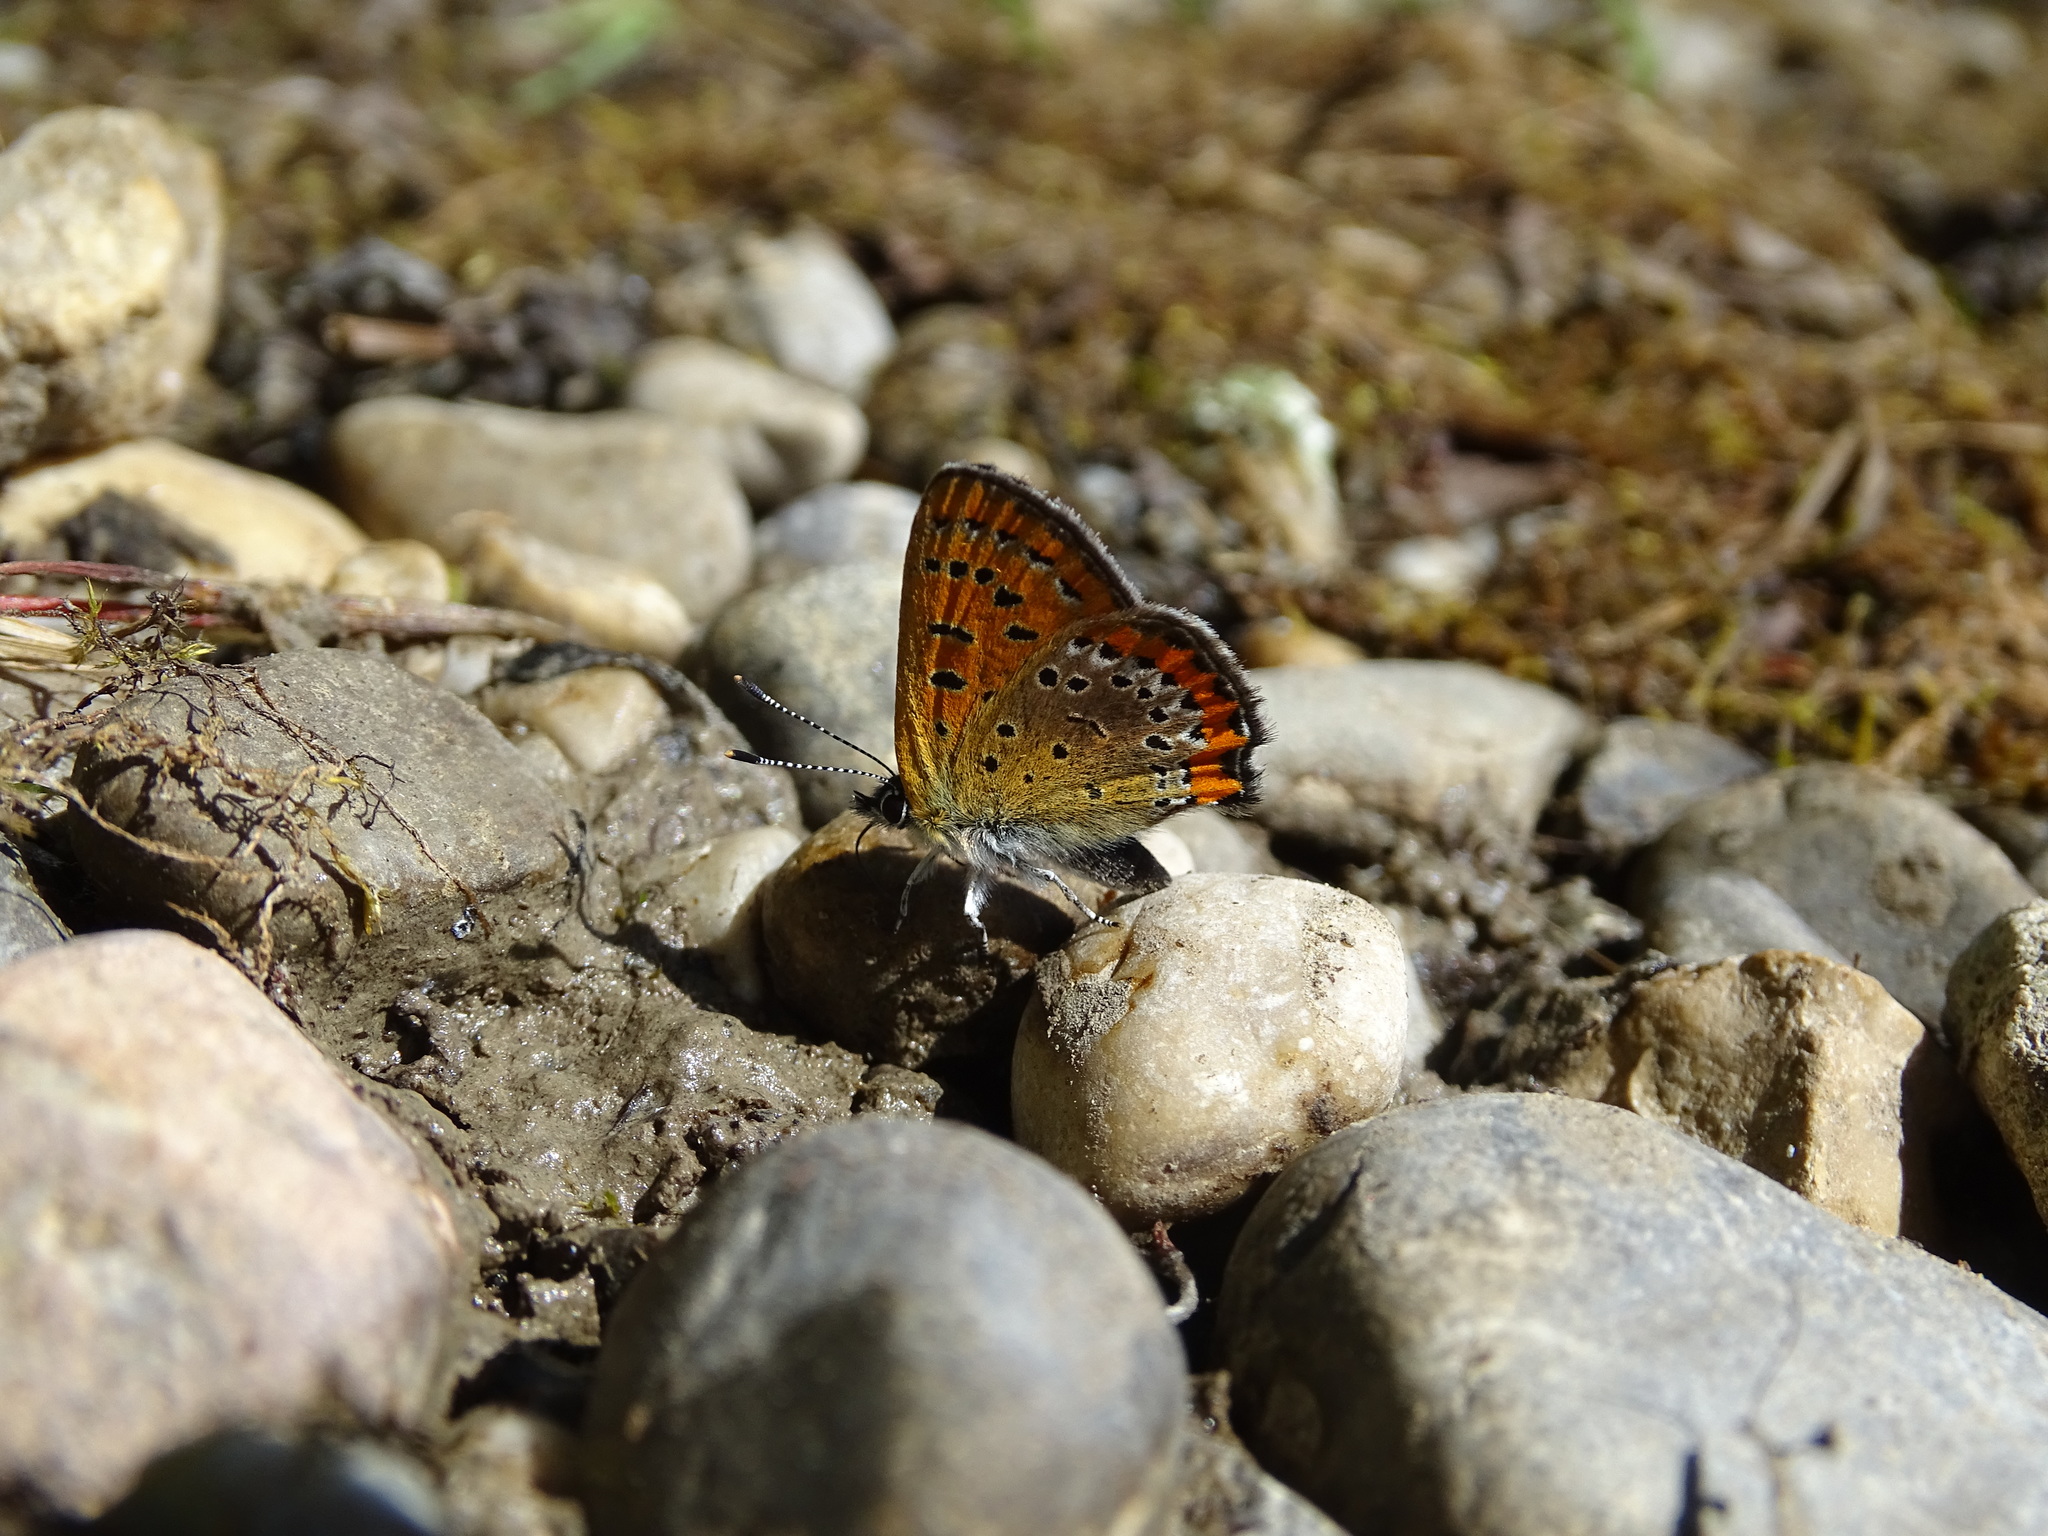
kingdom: Animalia
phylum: Arthropoda
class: Insecta
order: Lepidoptera
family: Lycaenidae
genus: Helleia
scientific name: Helleia helle
